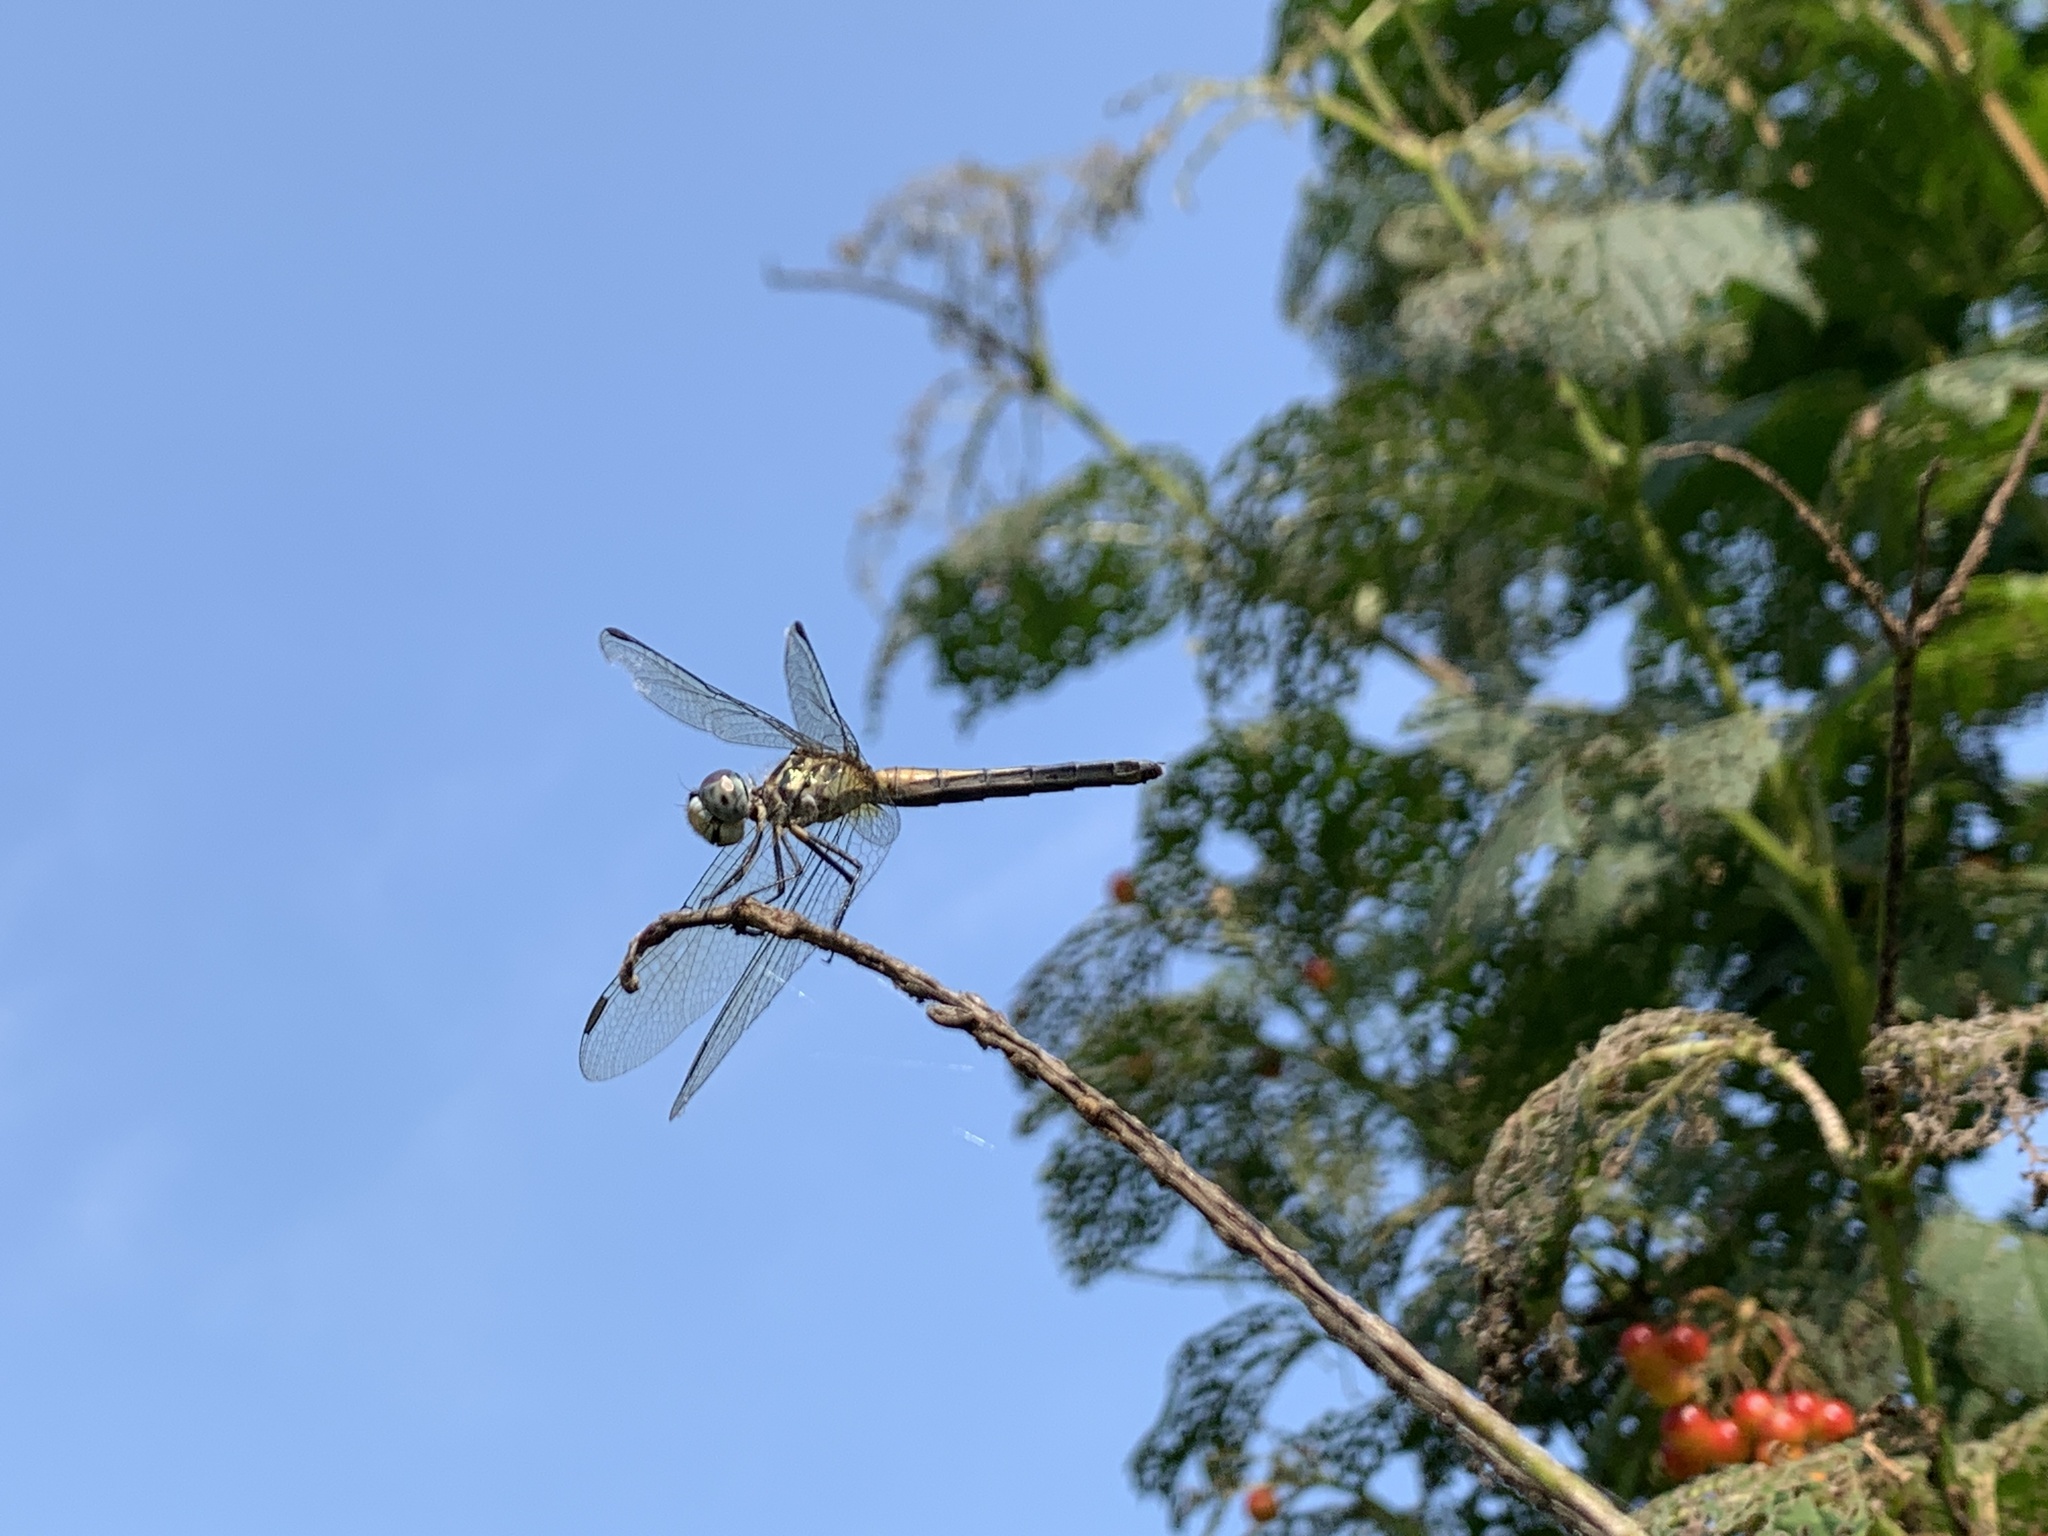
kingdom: Animalia
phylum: Arthropoda
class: Insecta
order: Odonata
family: Libellulidae
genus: Pachydiplax
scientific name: Pachydiplax longipennis
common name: Blue dasher
